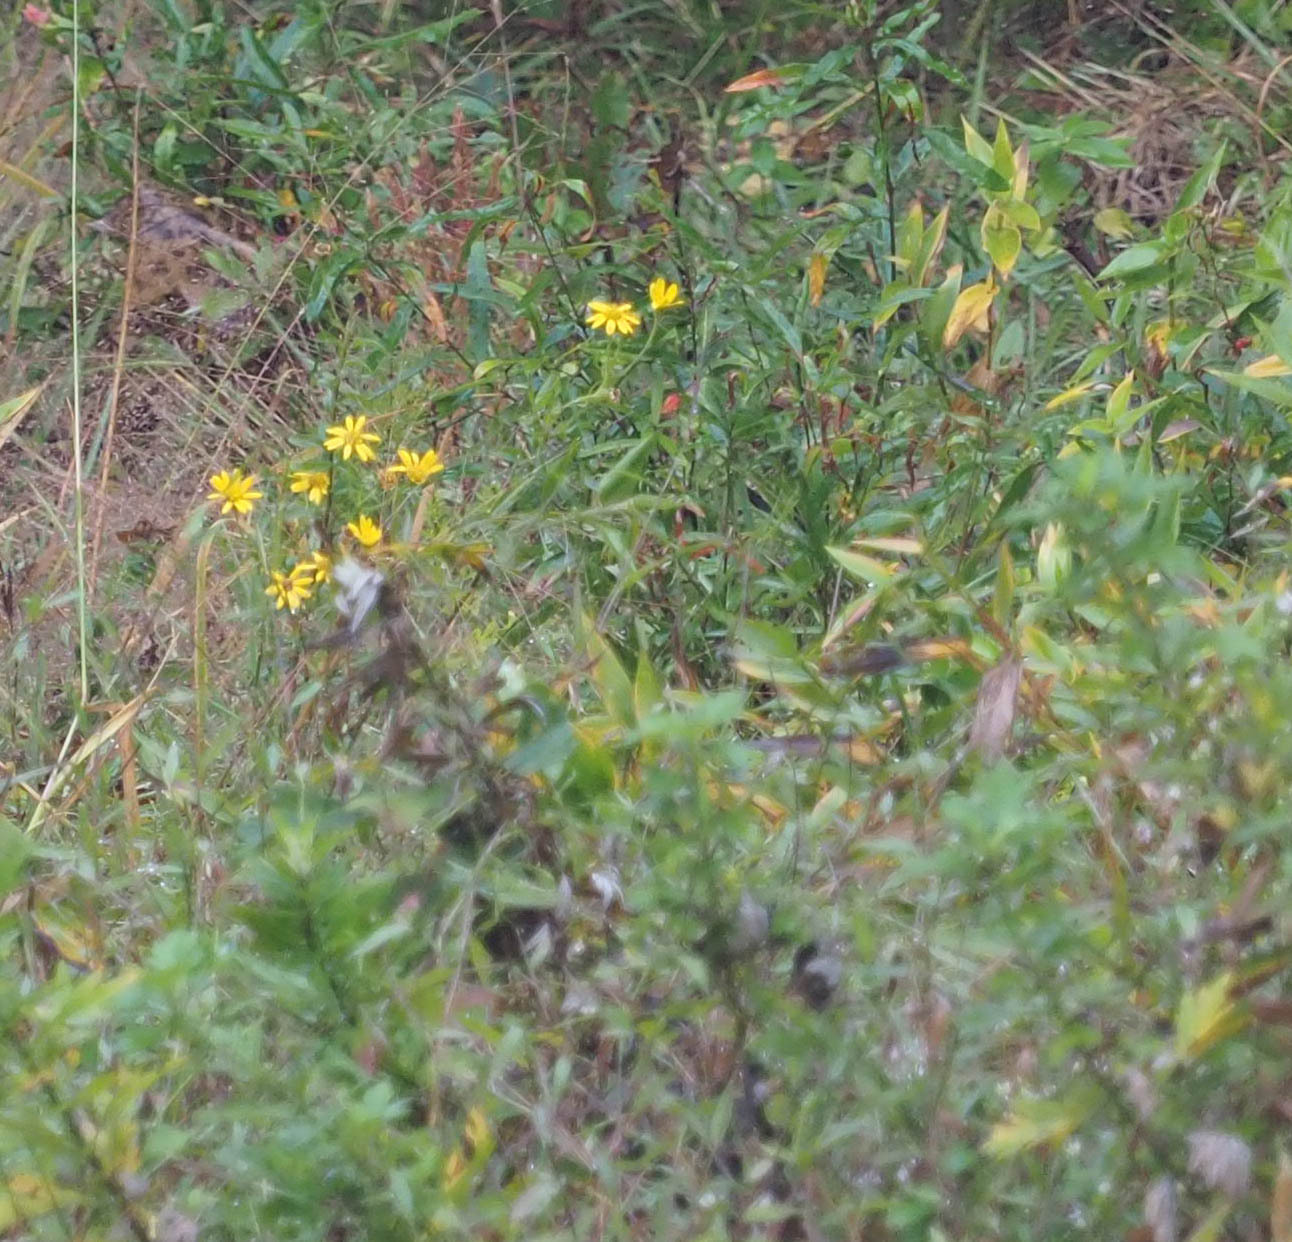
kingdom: Plantae
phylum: Tracheophyta
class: Magnoliopsida
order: Asterales
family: Asteraceae
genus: Chrysopsis
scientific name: Chrysopsis mariana
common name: Maryland golden-aster
